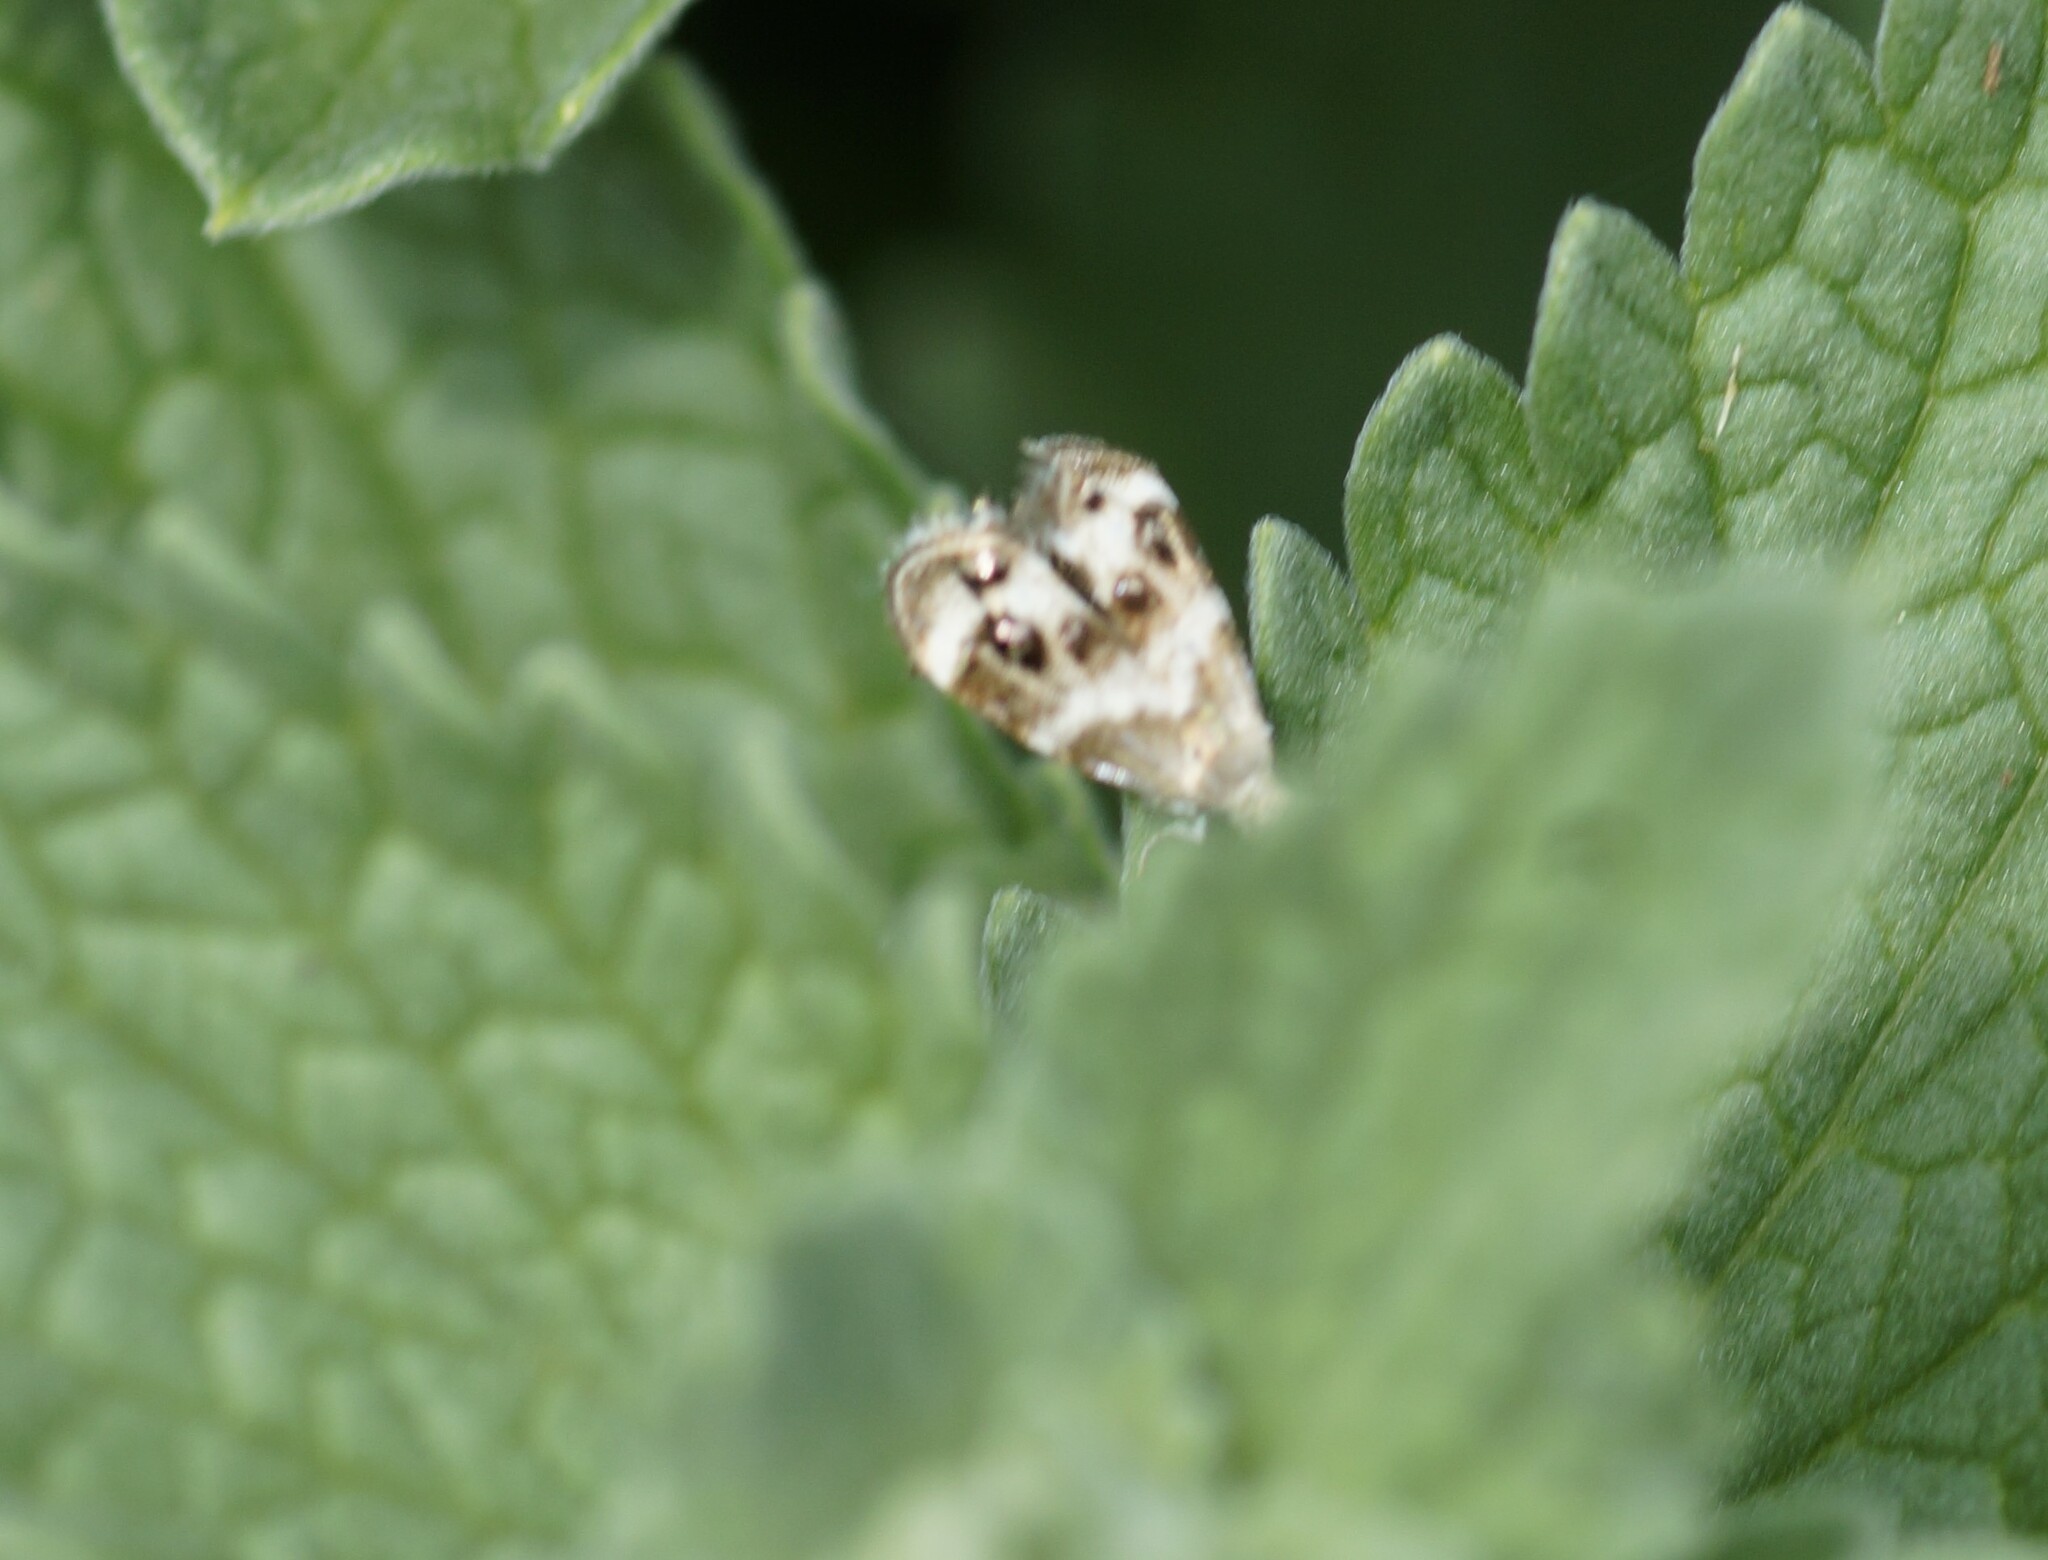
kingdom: Animalia
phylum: Arthropoda
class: Insecta
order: Lepidoptera
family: Choreutidae
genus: Tebenna
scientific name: Tebenna micalis
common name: Vagrant twitcher
